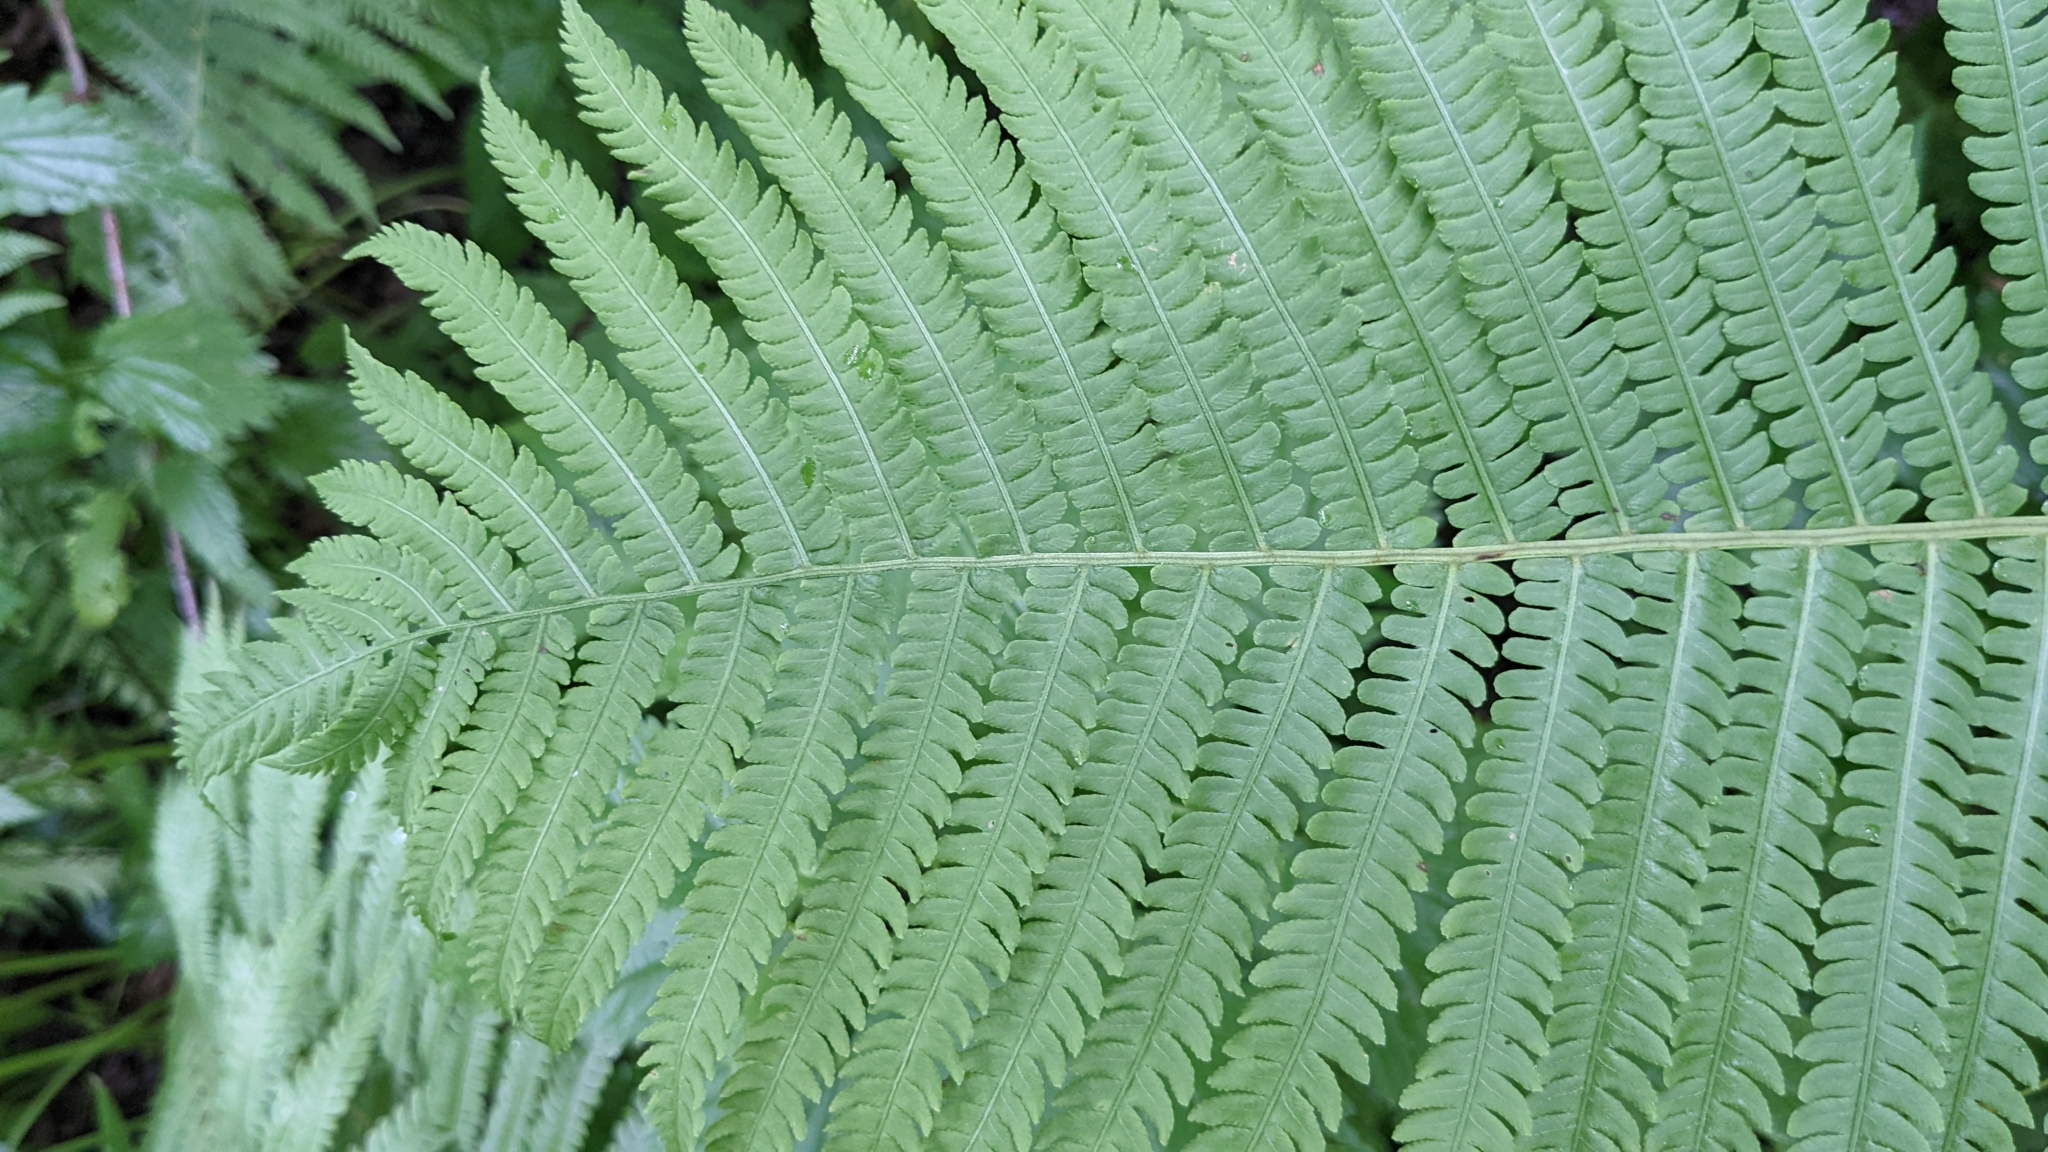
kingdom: Plantae
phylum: Tracheophyta
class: Polypodiopsida
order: Polypodiales
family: Onocleaceae
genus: Matteuccia
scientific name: Matteuccia struthiopteris
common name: Ostrich fern
